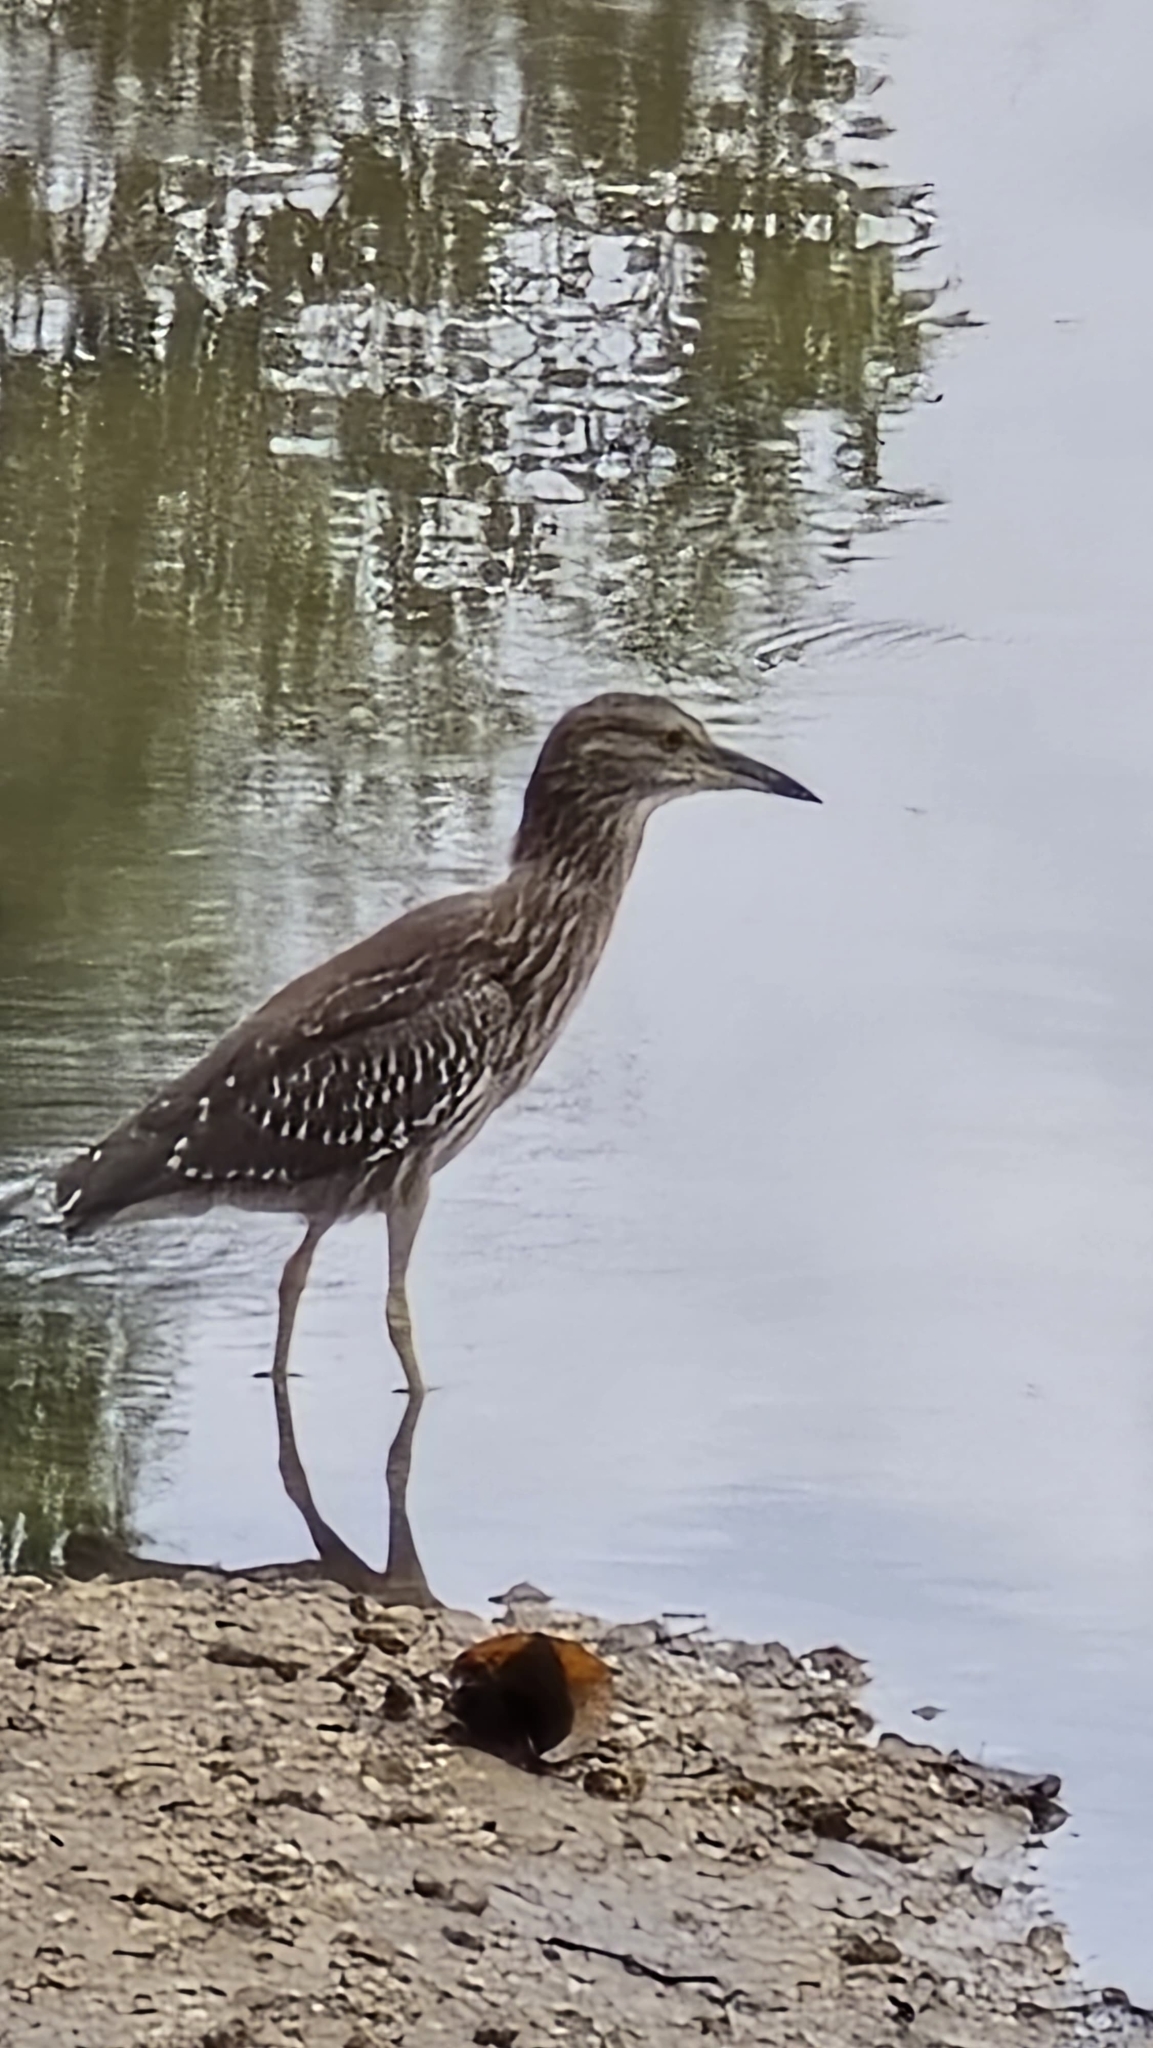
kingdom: Animalia
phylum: Chordata
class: Aves
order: Pelecaniformes
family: Ardeidae
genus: Nycticorax
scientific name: Nycticorax nycticorax
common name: Black-crowned night heron
